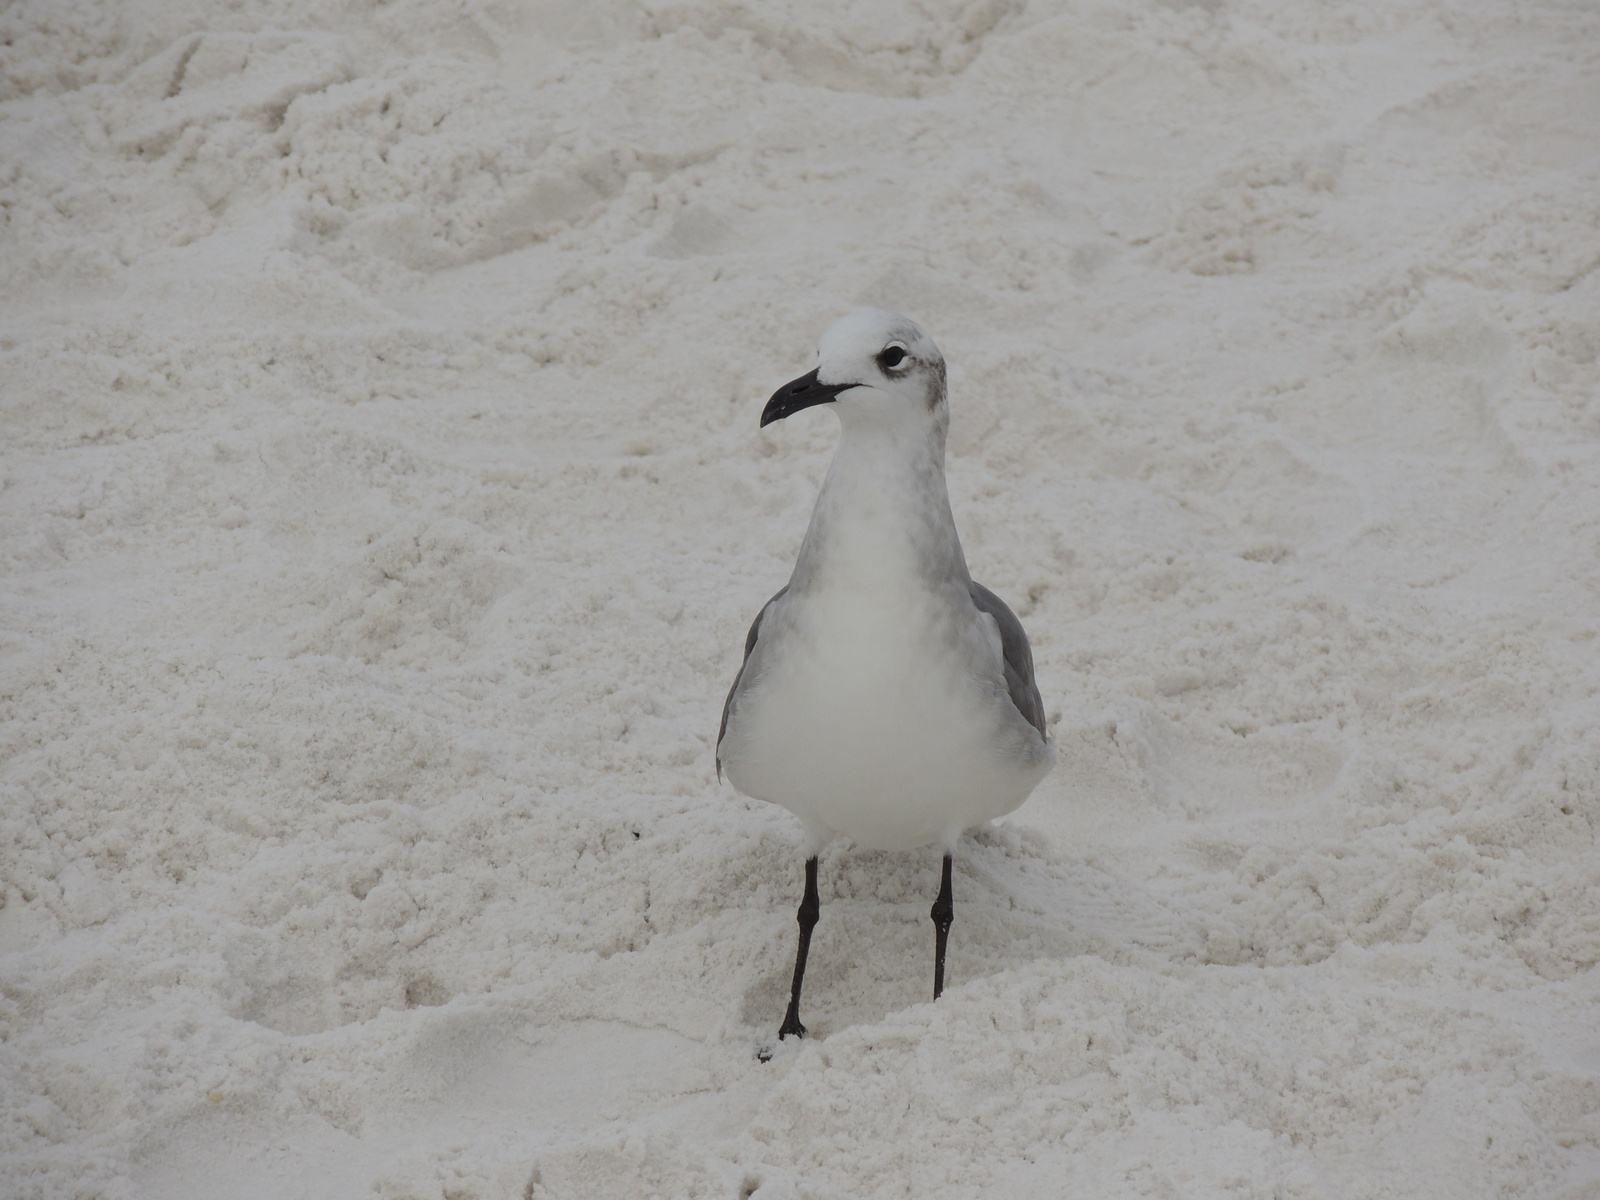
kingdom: Animalia
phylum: Chordata
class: Aves
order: Charadriiformes
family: Laridae
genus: Leucophaeus
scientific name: Leucophaeus atricilla
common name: Laughing gull
